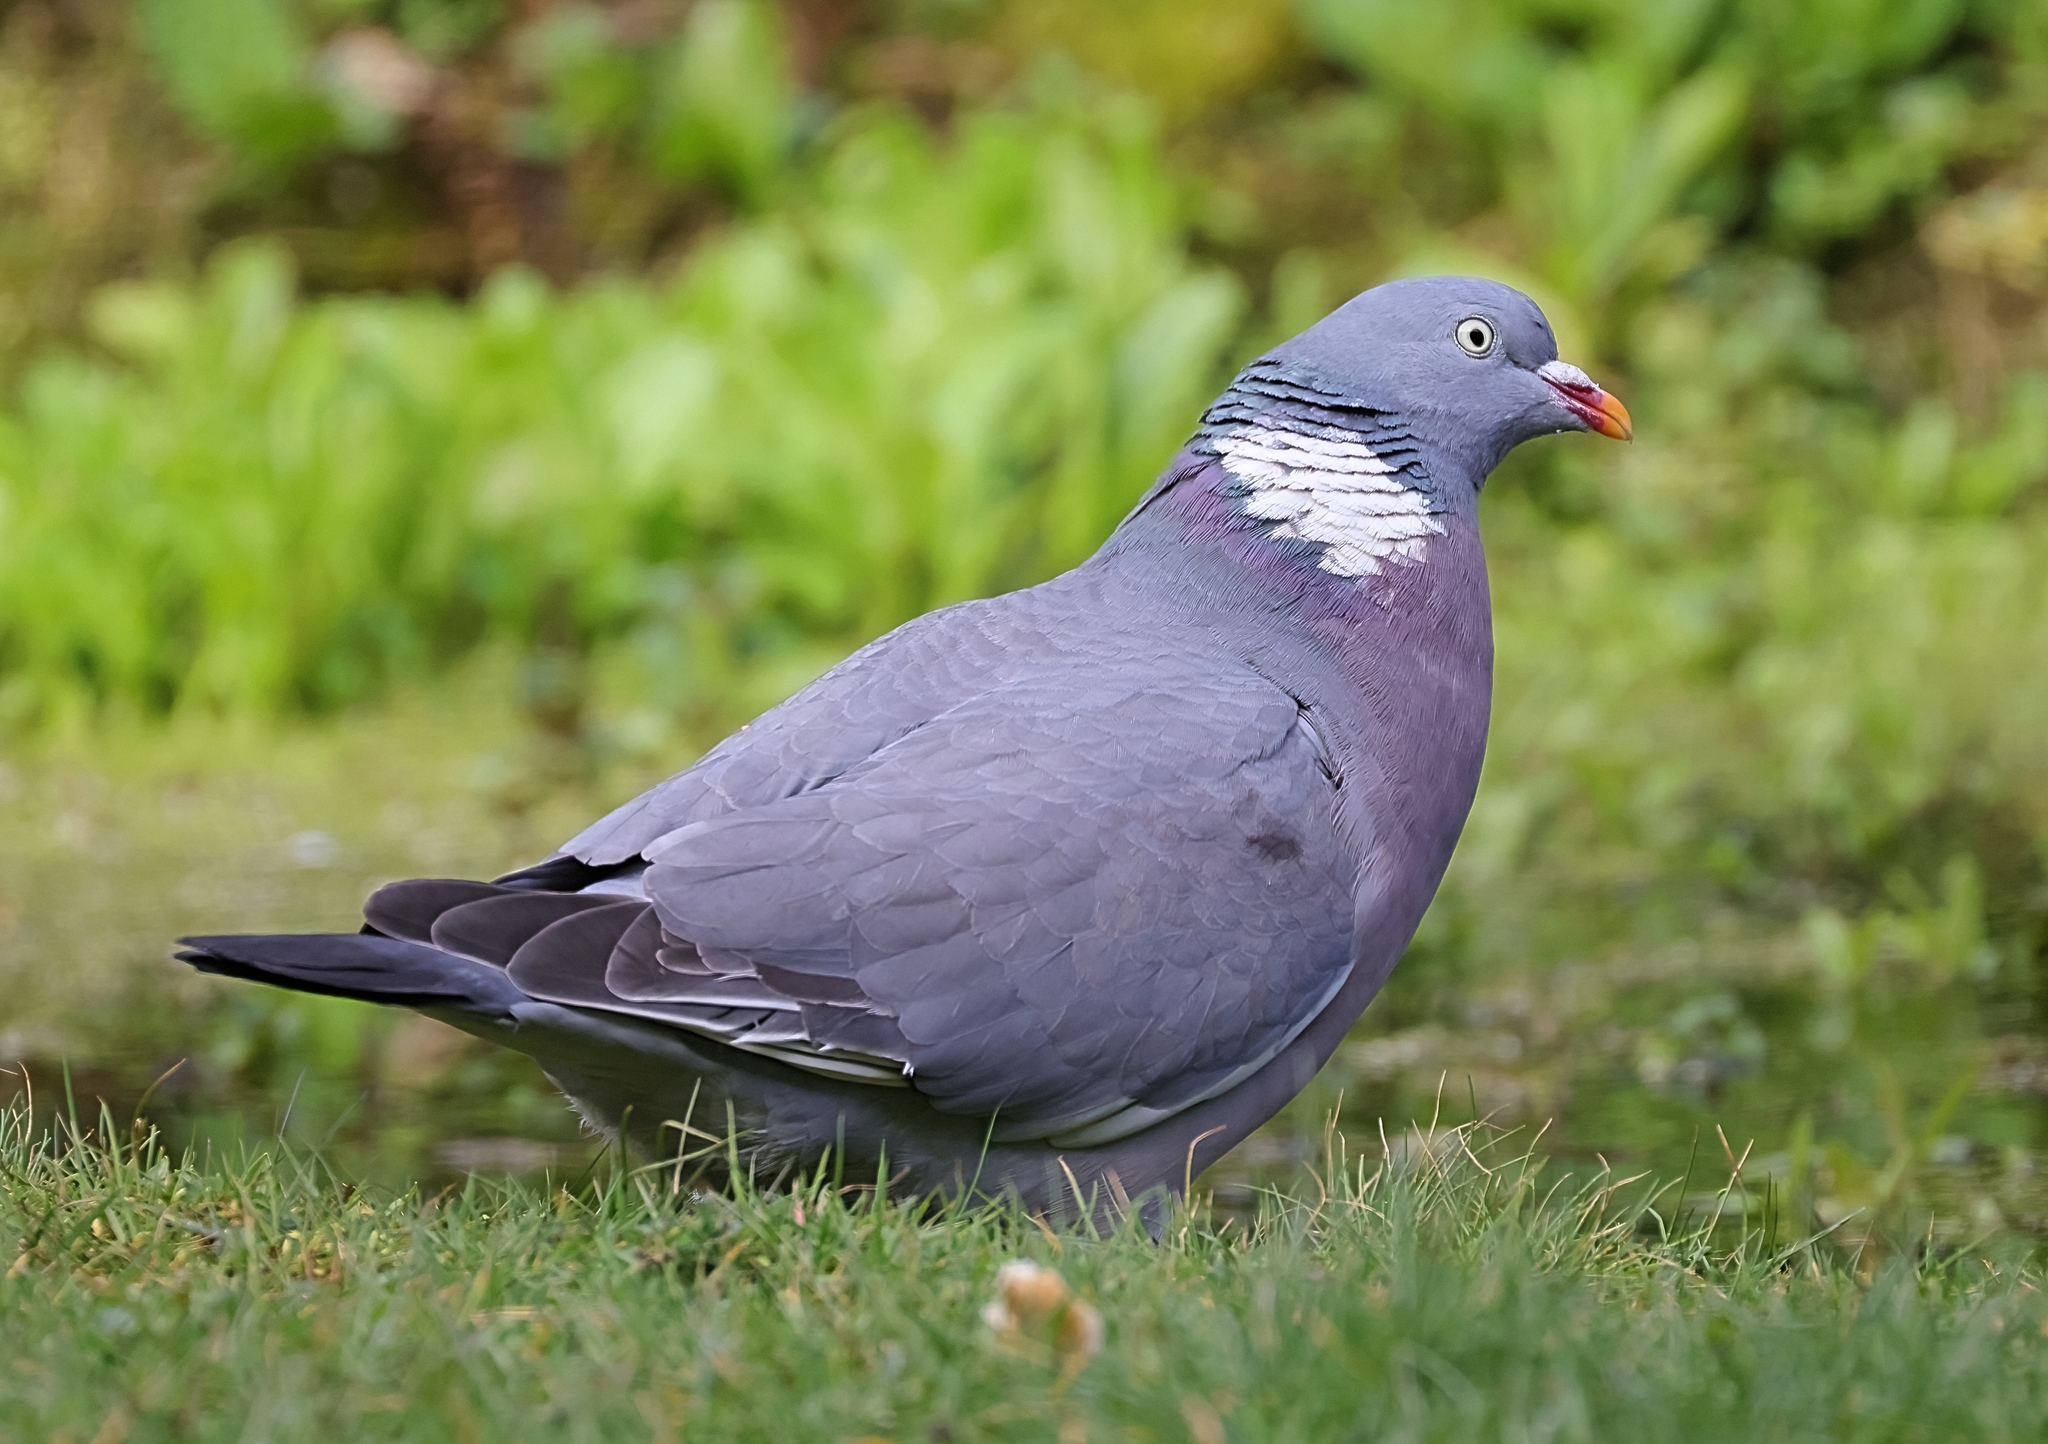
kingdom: Animalia
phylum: Chordata
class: Aves
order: Columbiformes
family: Columbidae
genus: Columba
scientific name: Columba palumbus
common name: Common wood pigeon
